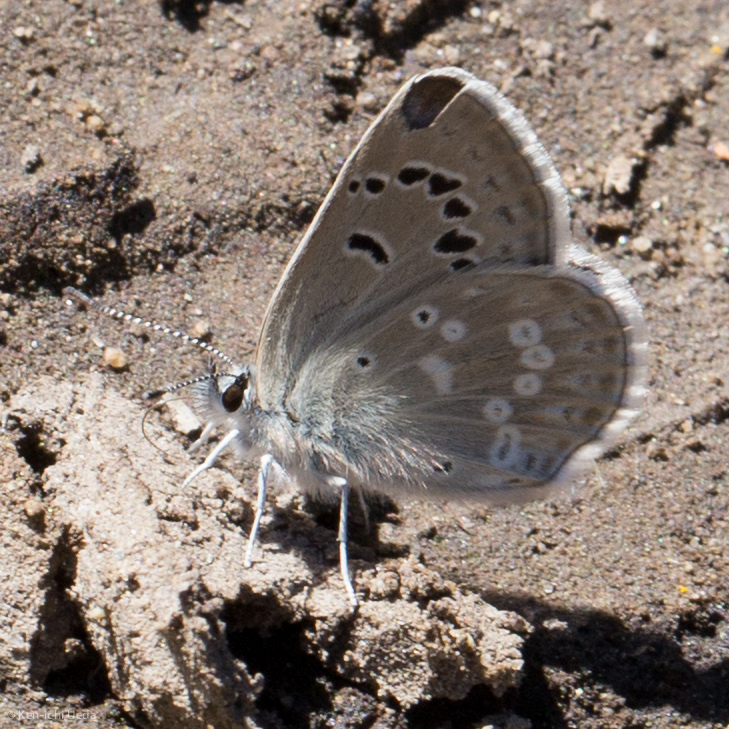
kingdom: Animalia
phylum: Arthropoda
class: Insecta
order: Lepidoptera
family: Lycaenidae
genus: Icaricia
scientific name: Icaricia icarioides
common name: Boisduval's blue
